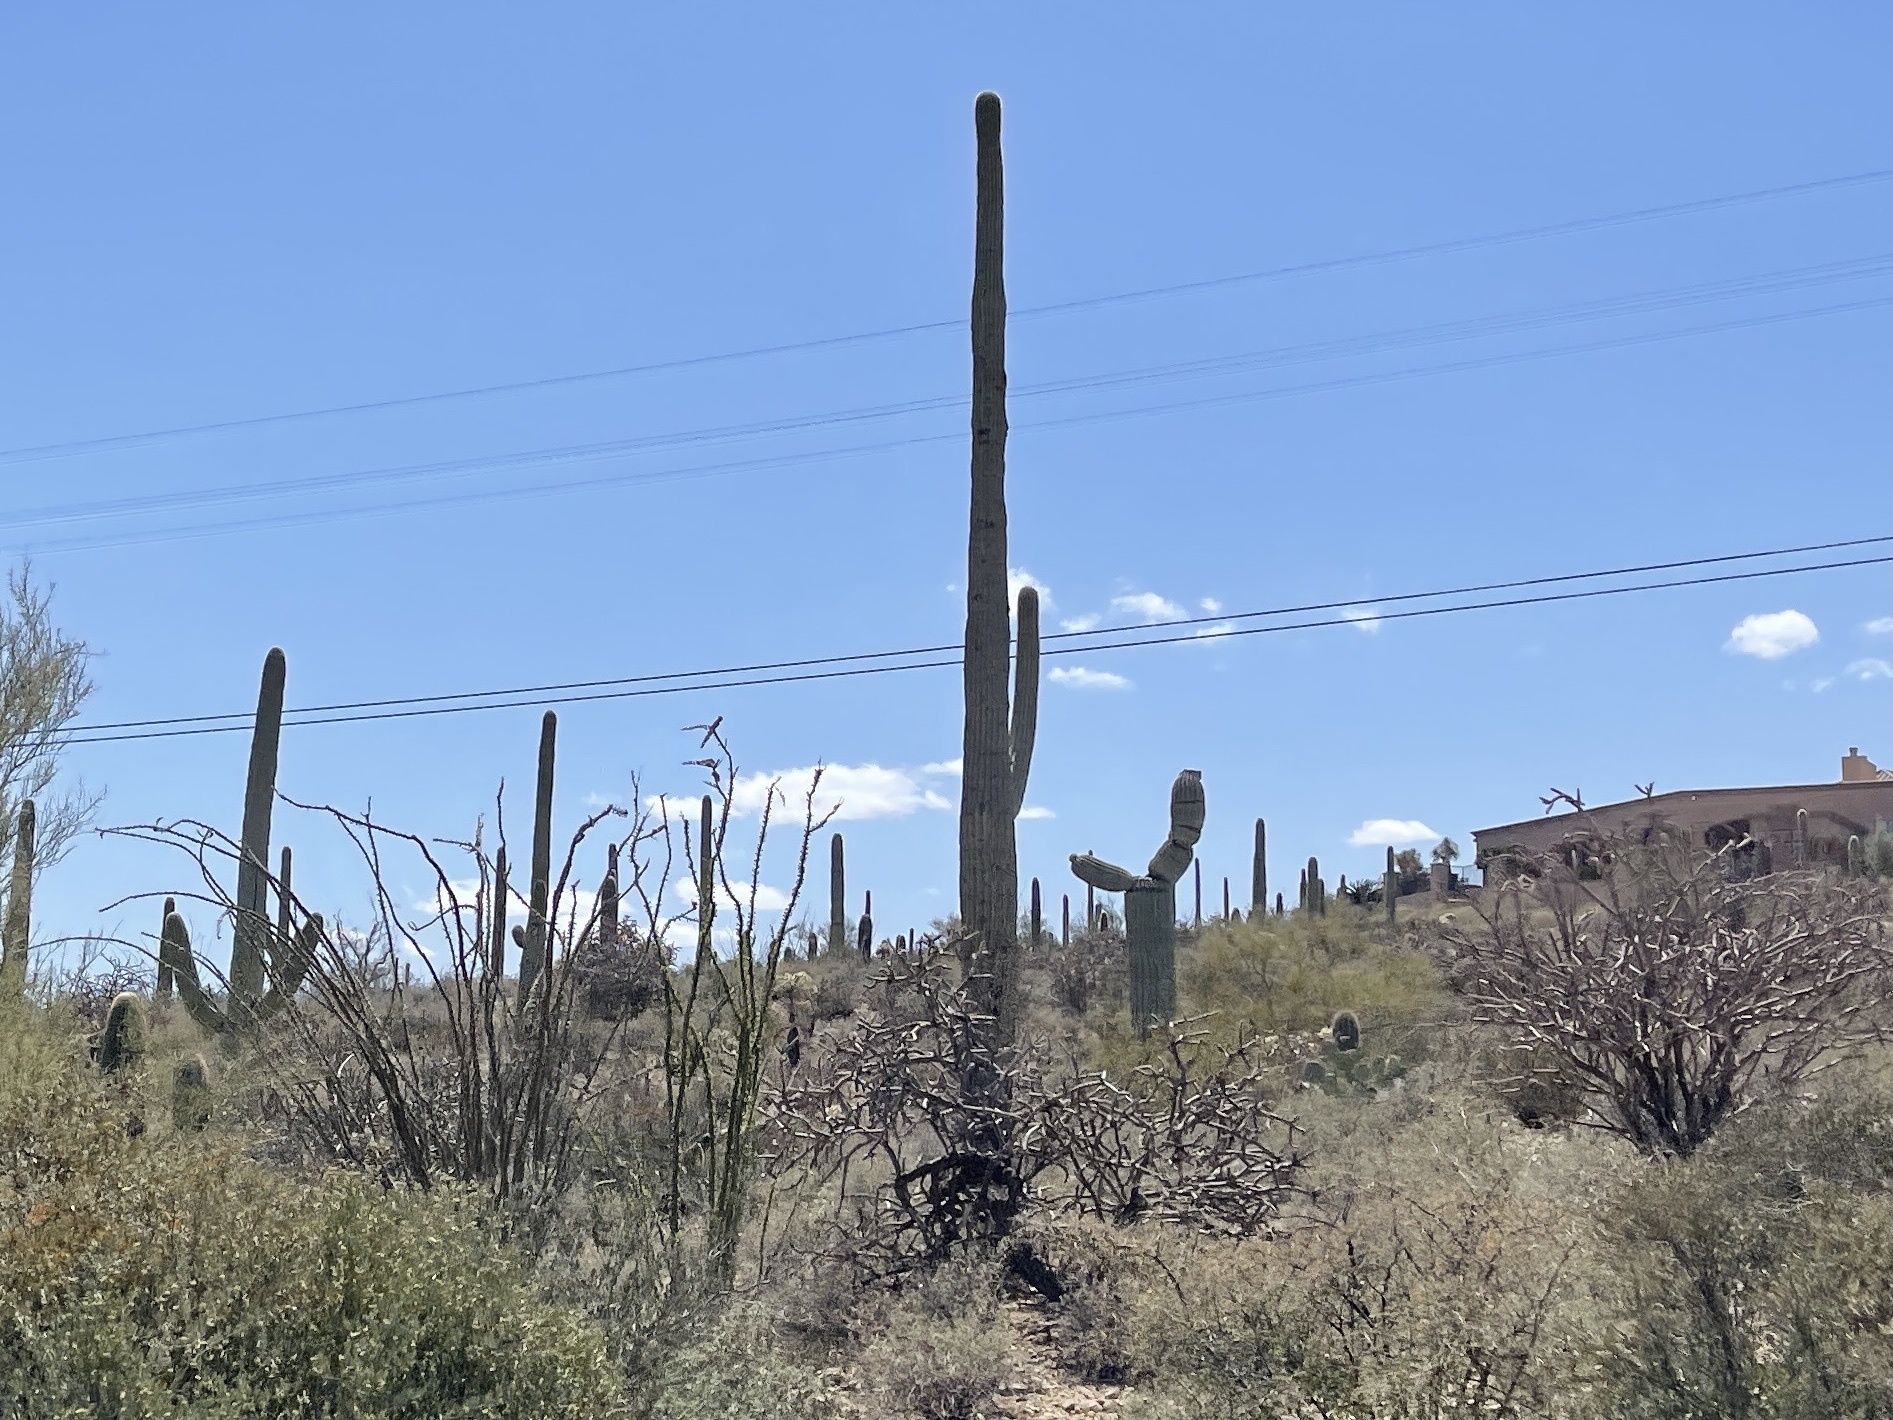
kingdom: Plantae
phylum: Tracheophyta
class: Magnoliopsida
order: Caryophyllales
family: Cactaceae
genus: Carnegiea
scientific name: Carnegiea gigantea
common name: Saguaro
